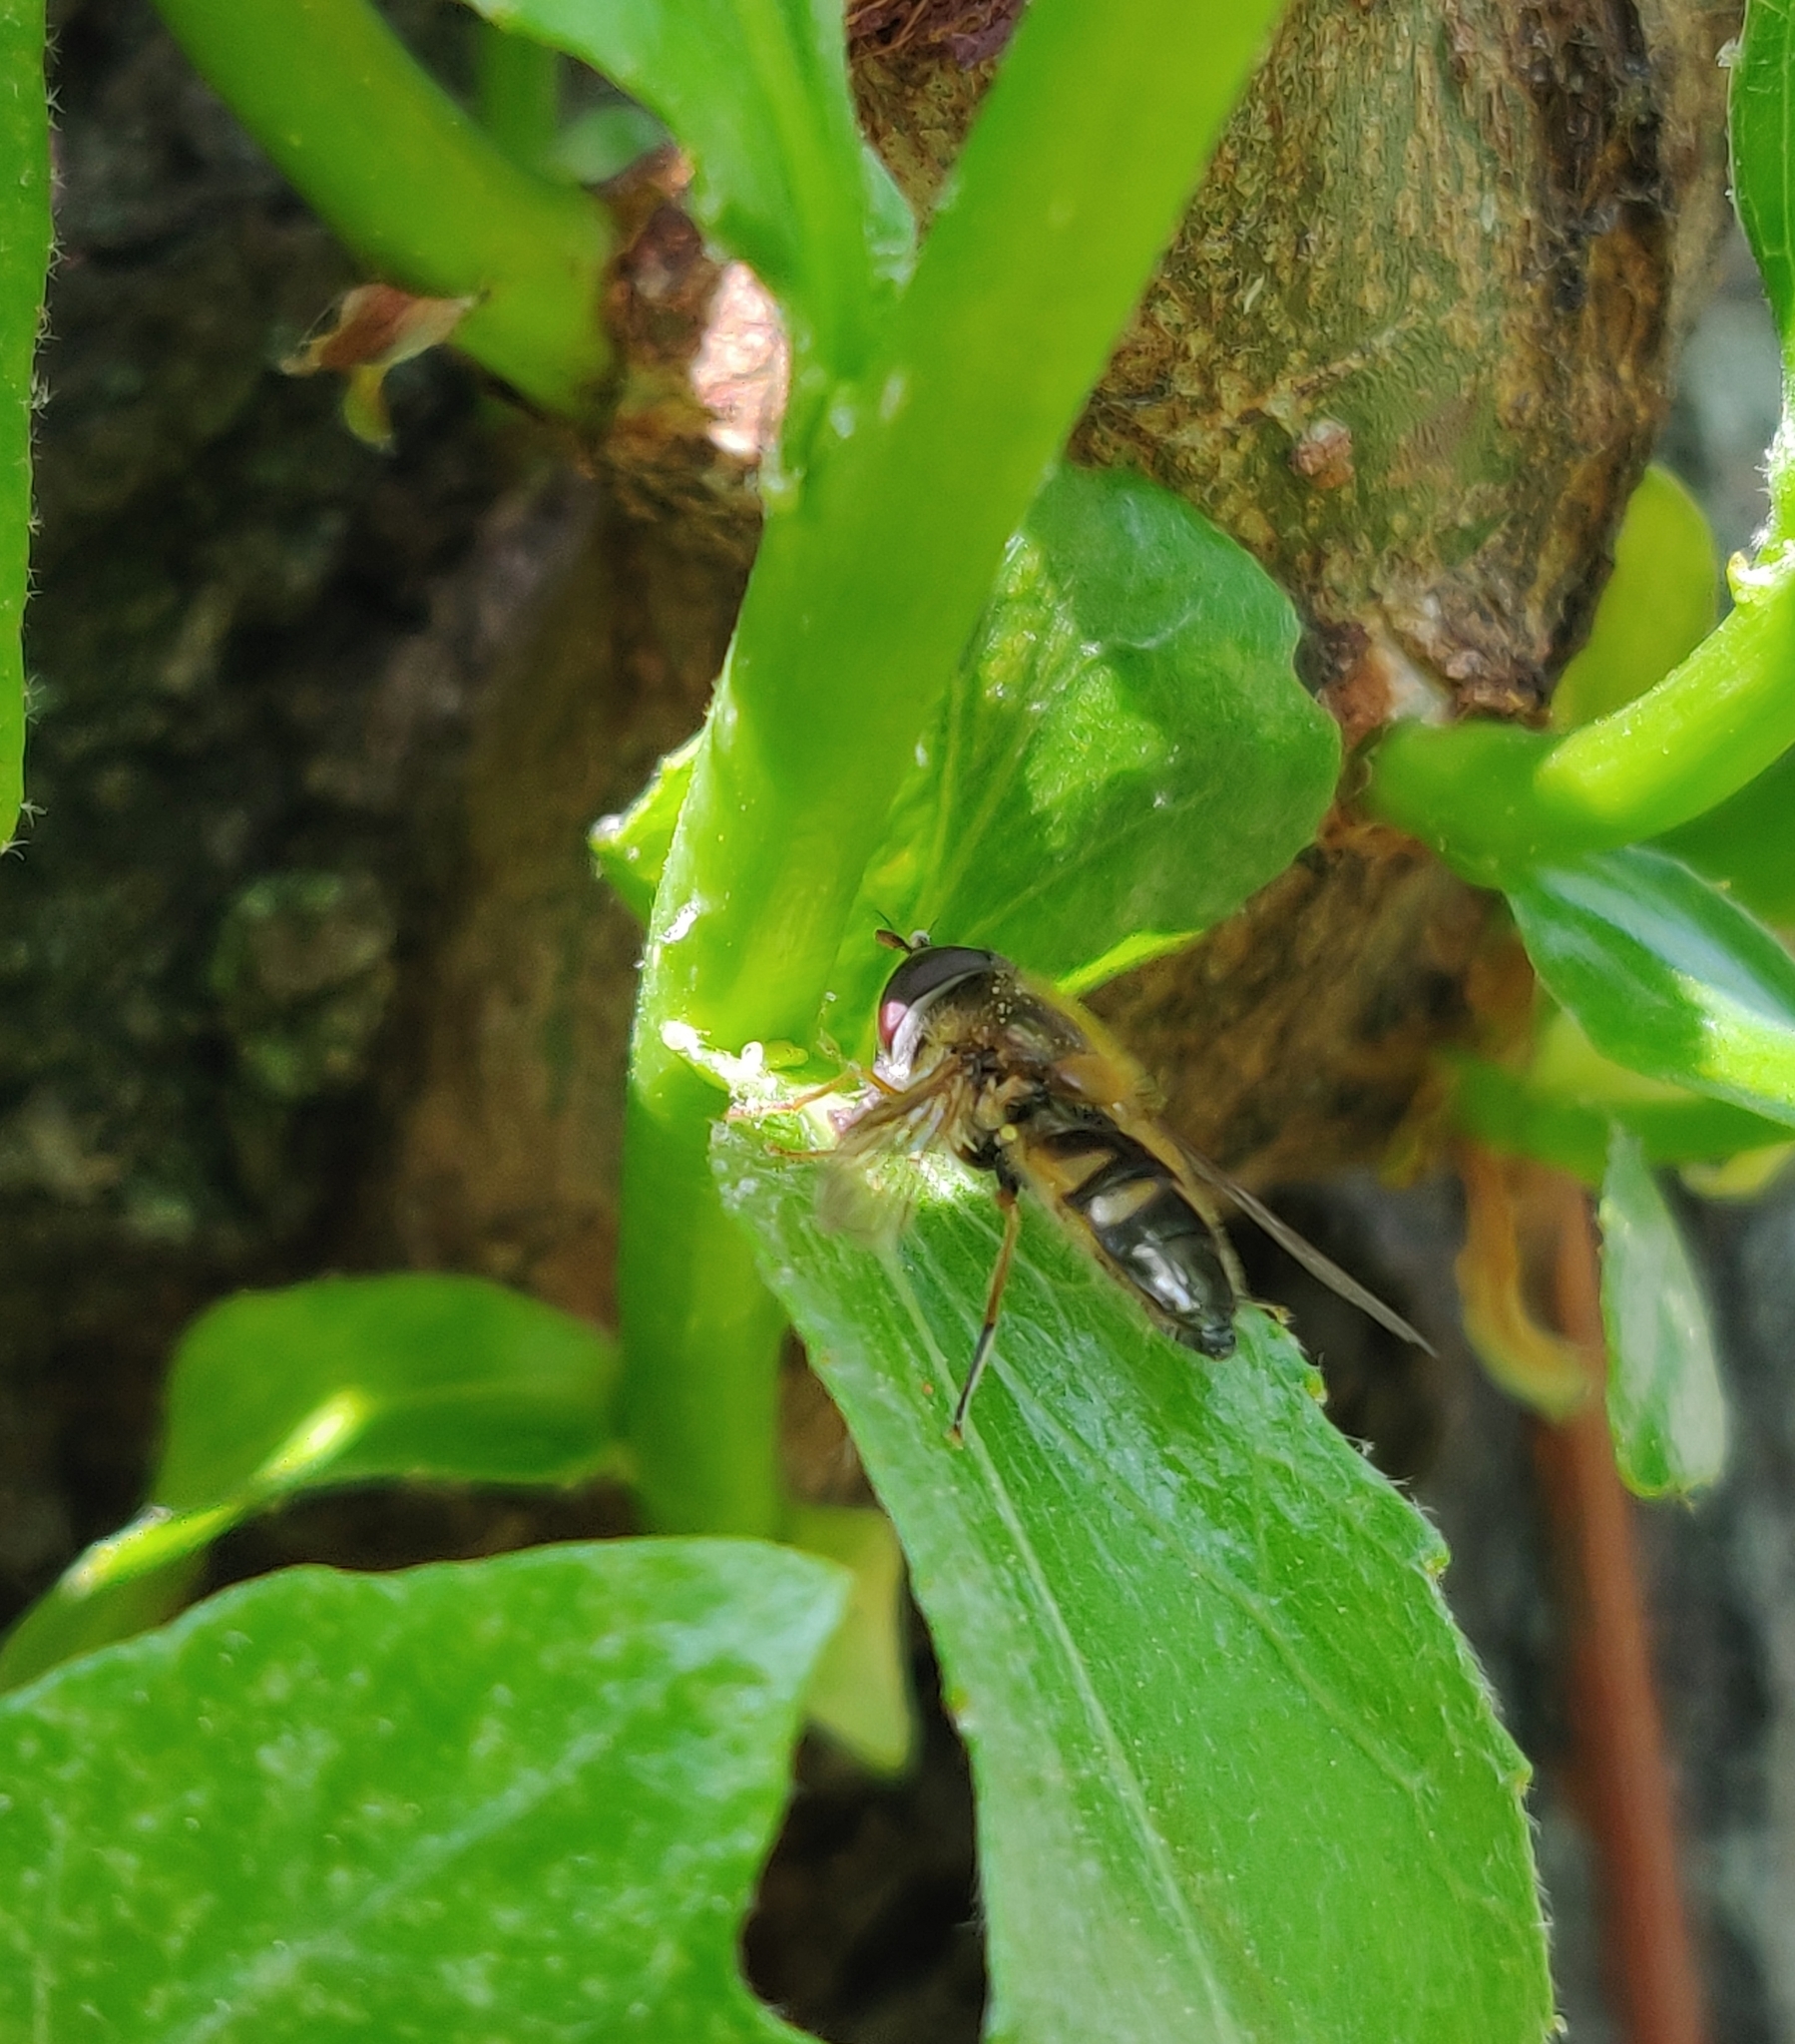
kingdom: Animalia
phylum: Arthropoda
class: Insecta
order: Diptera
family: Syrphidae
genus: Epistrophe
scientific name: Epistrophe eligans
